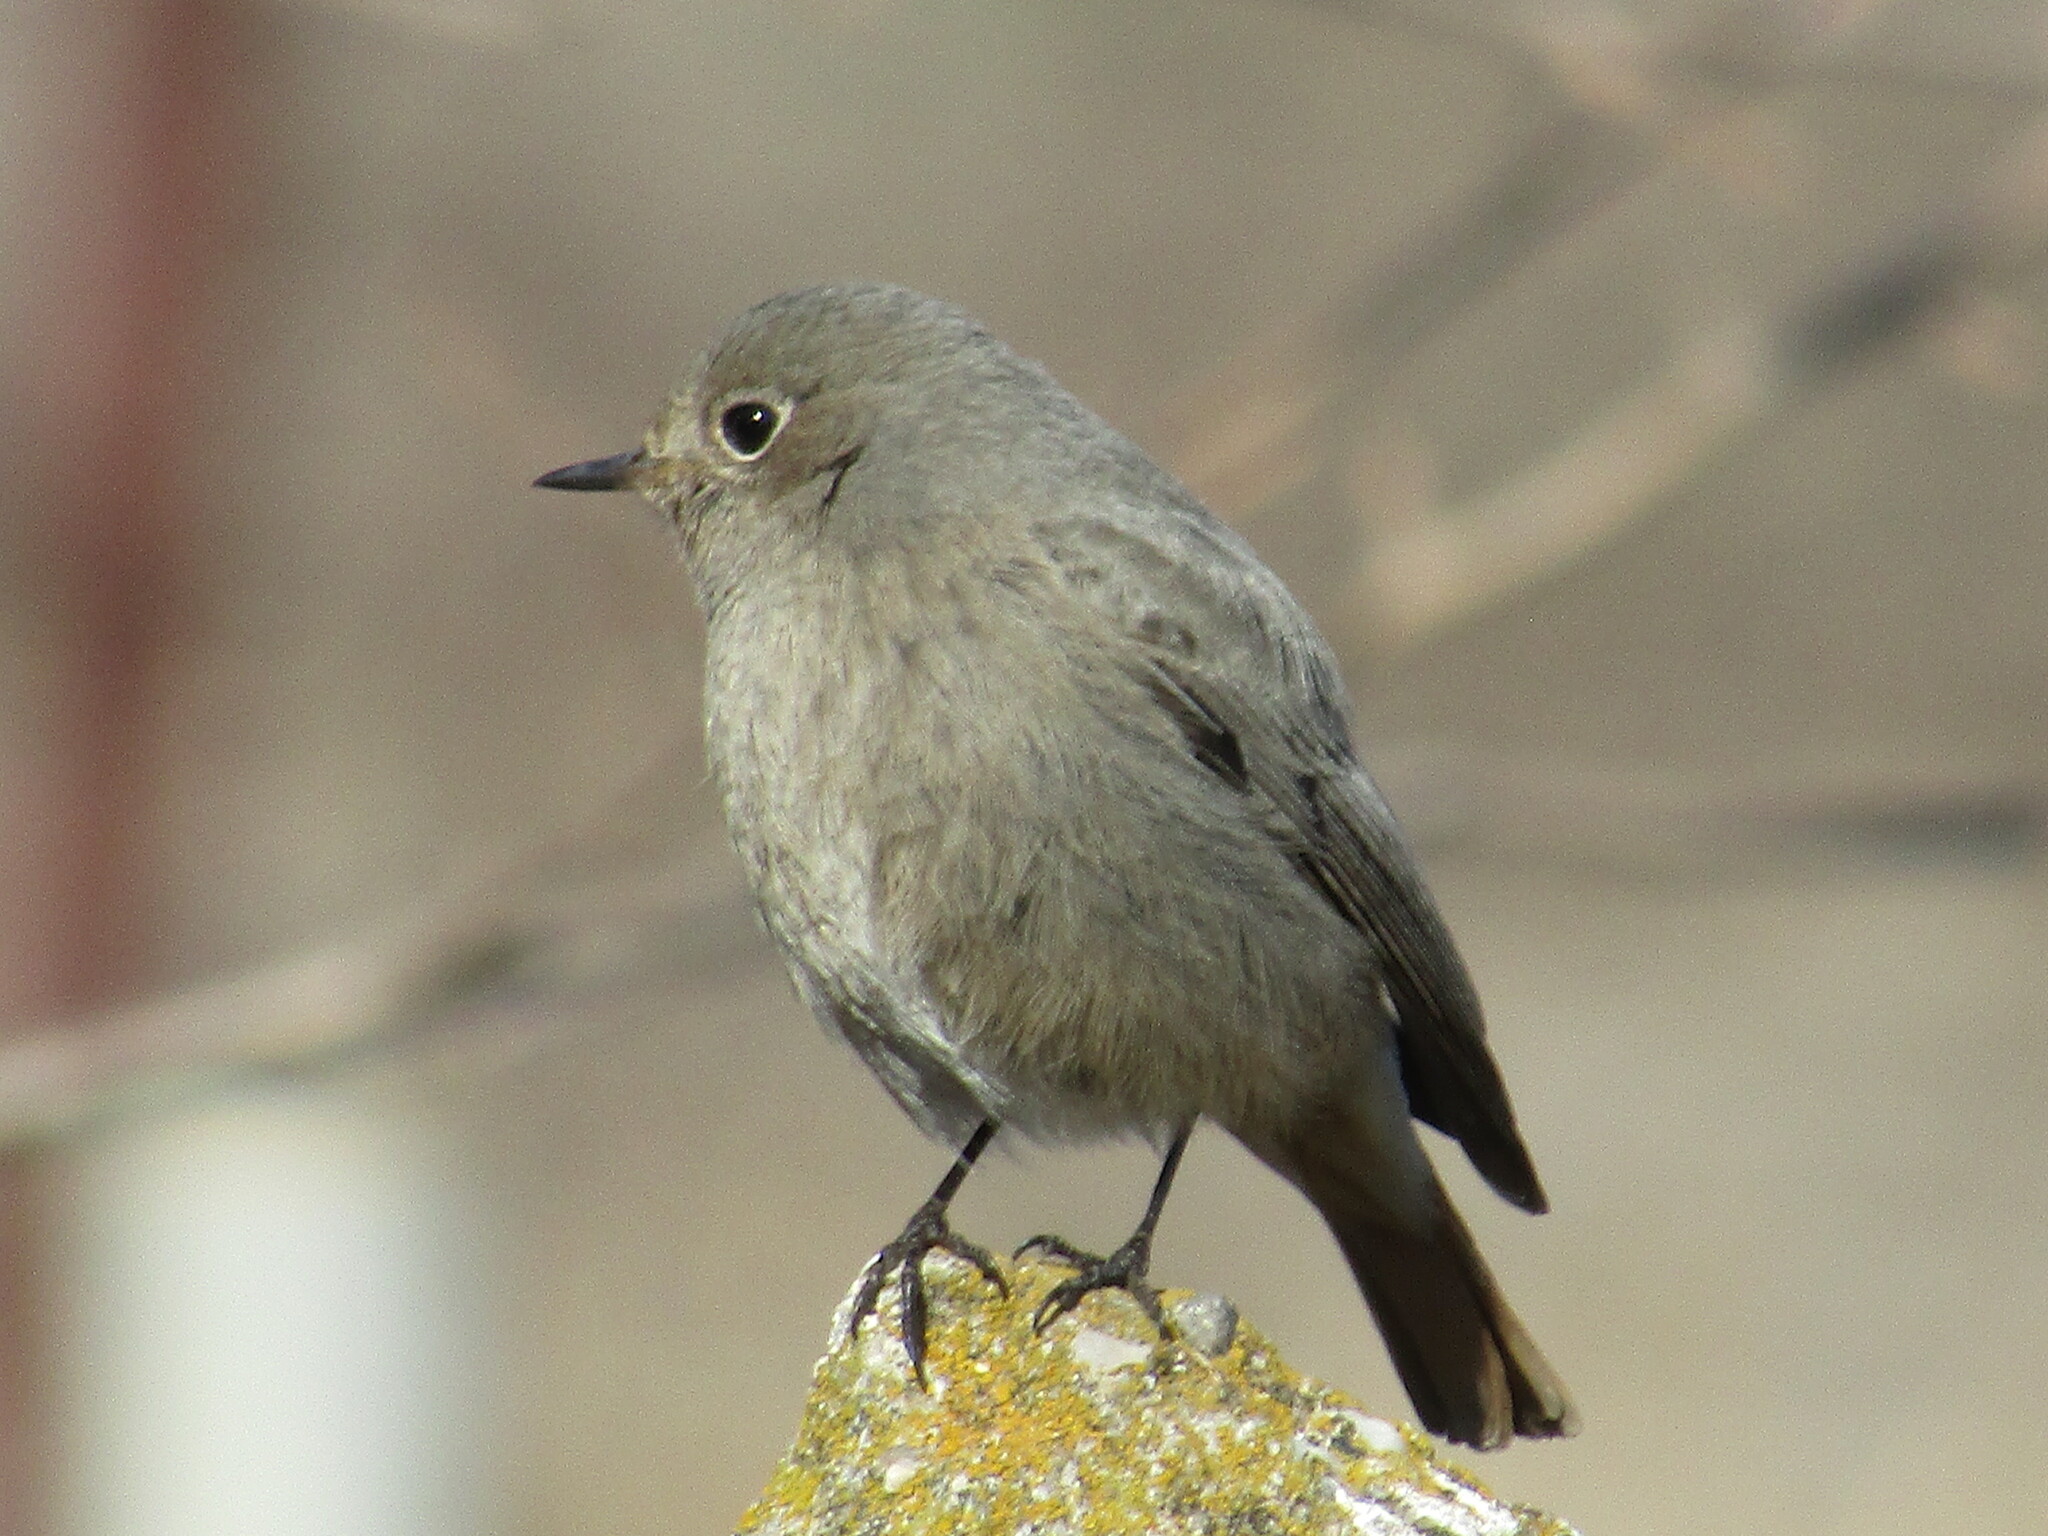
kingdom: Animalia
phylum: Chordata
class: Aves
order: Passeriformes
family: Muscicapidae
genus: Phoenicurus
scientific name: Phoenicurus ochruros
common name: Black redstart
